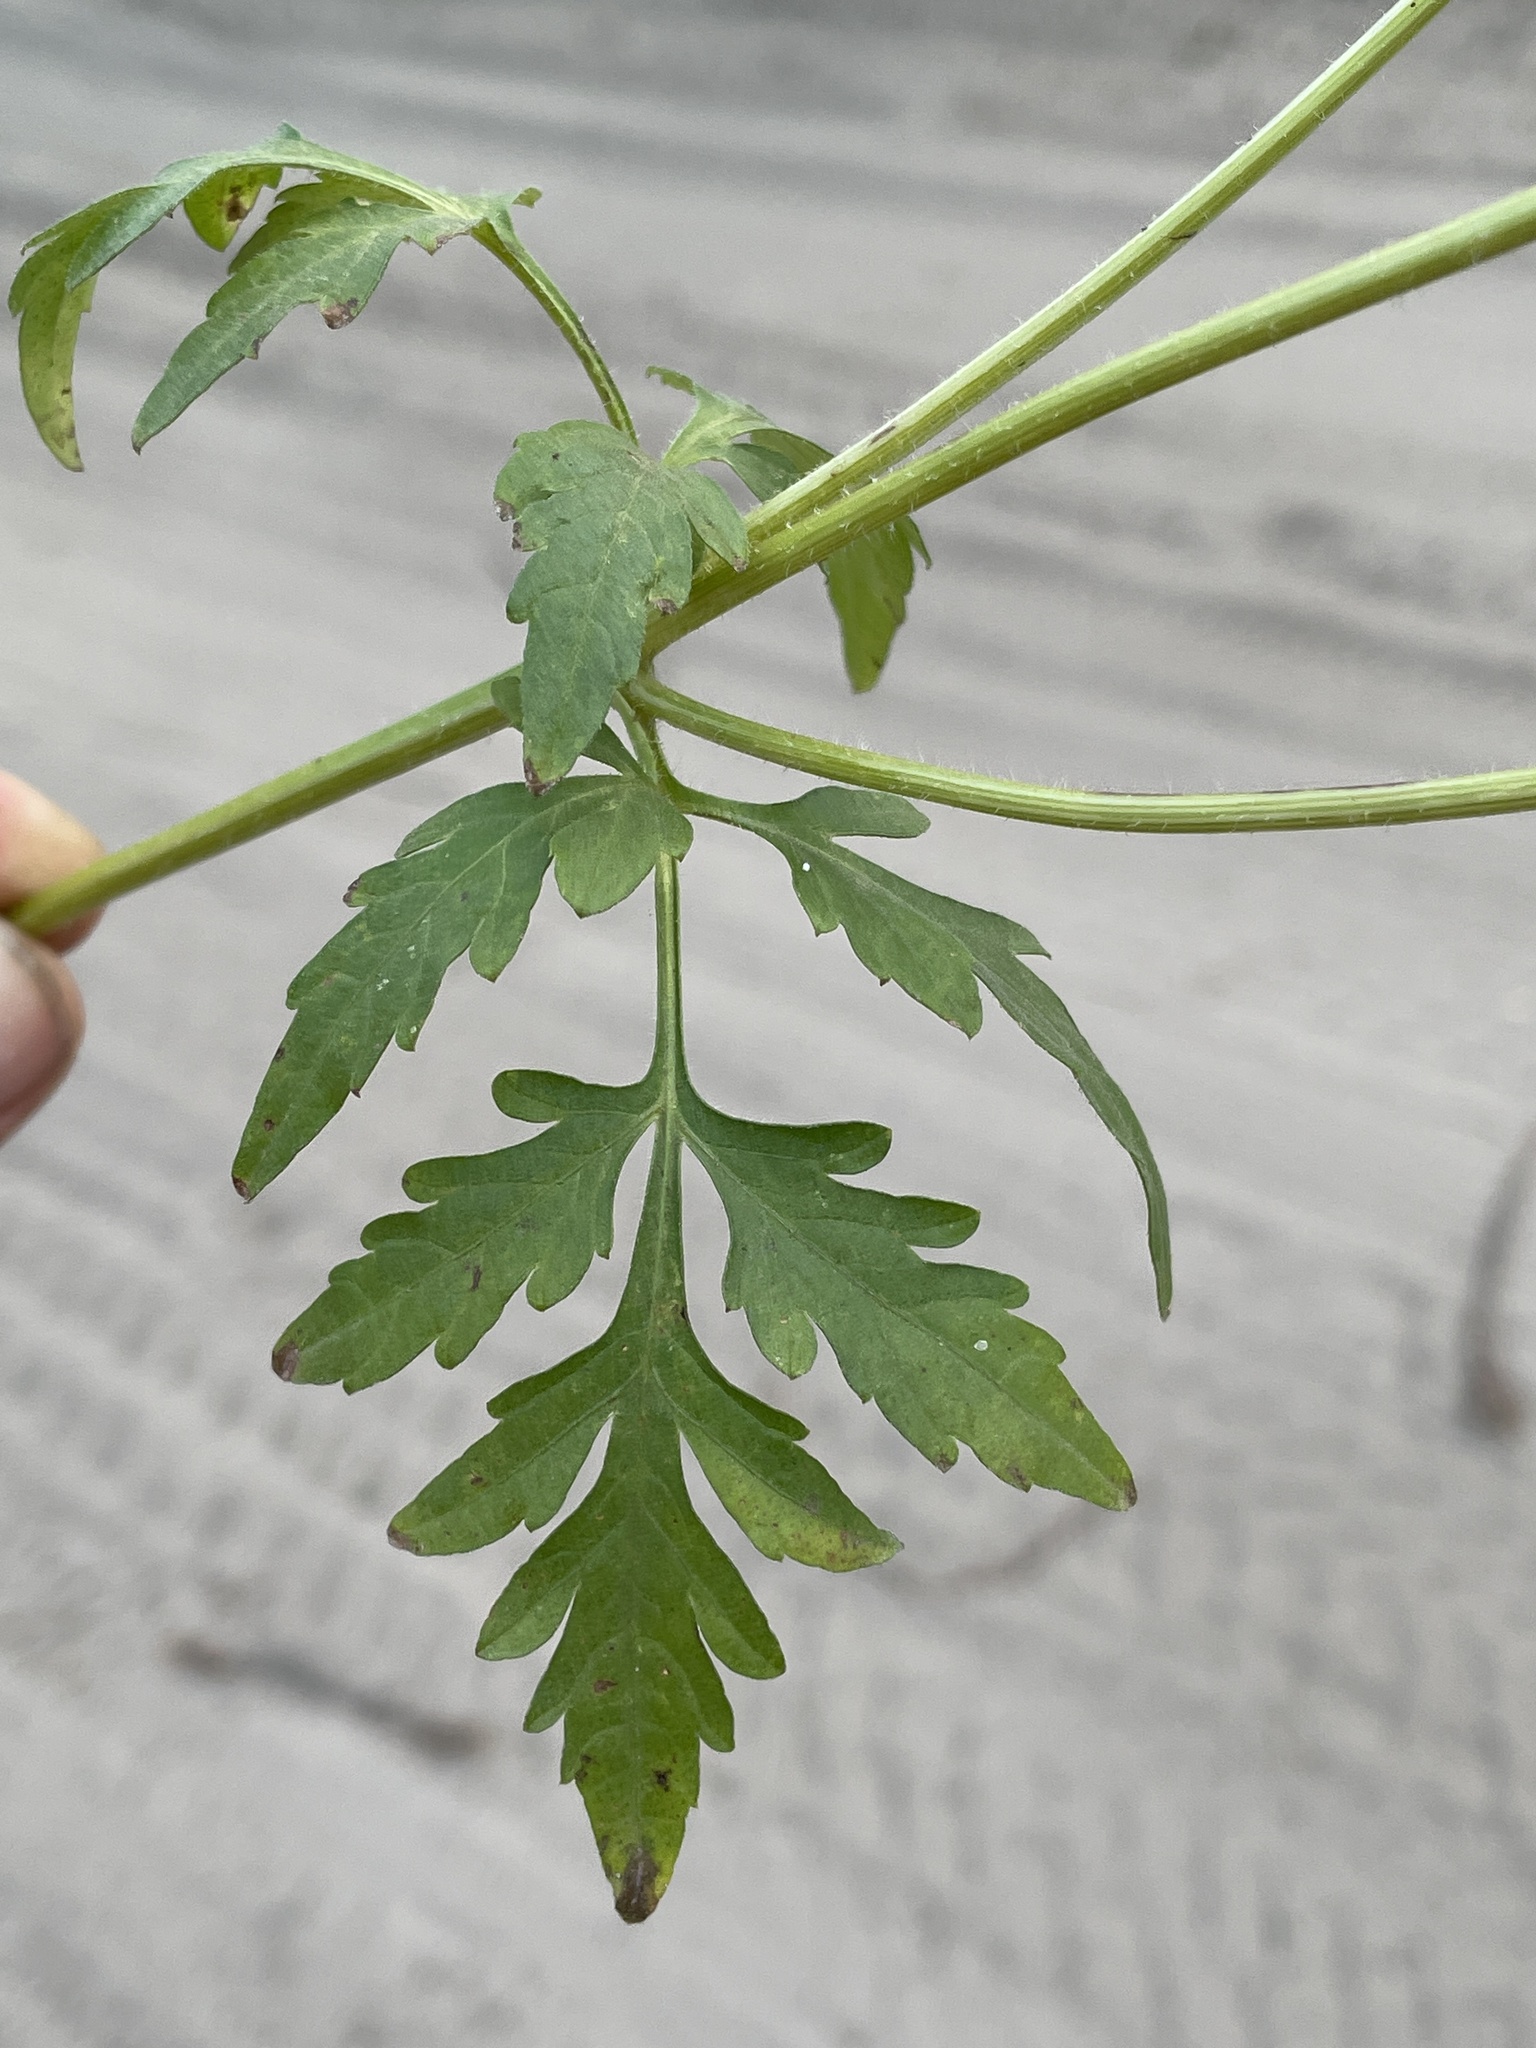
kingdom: Plantae
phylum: Tracheophyta
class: Magnoliopsida
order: Asterales
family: Asteraceae
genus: Bidens
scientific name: Bidens schimperi
